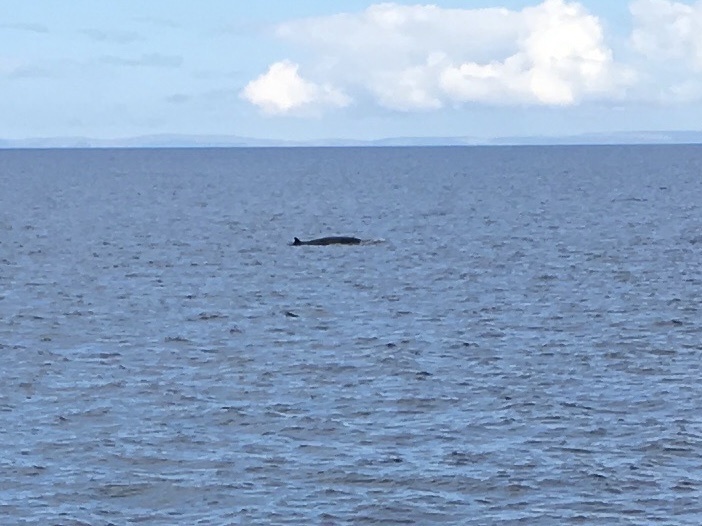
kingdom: Animalia
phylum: Chordata
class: Mammalia
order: Cetacea
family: Balaenopteridae
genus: Balaenoptera
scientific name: Balaenoptera acutorostrata
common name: Common minke whale
